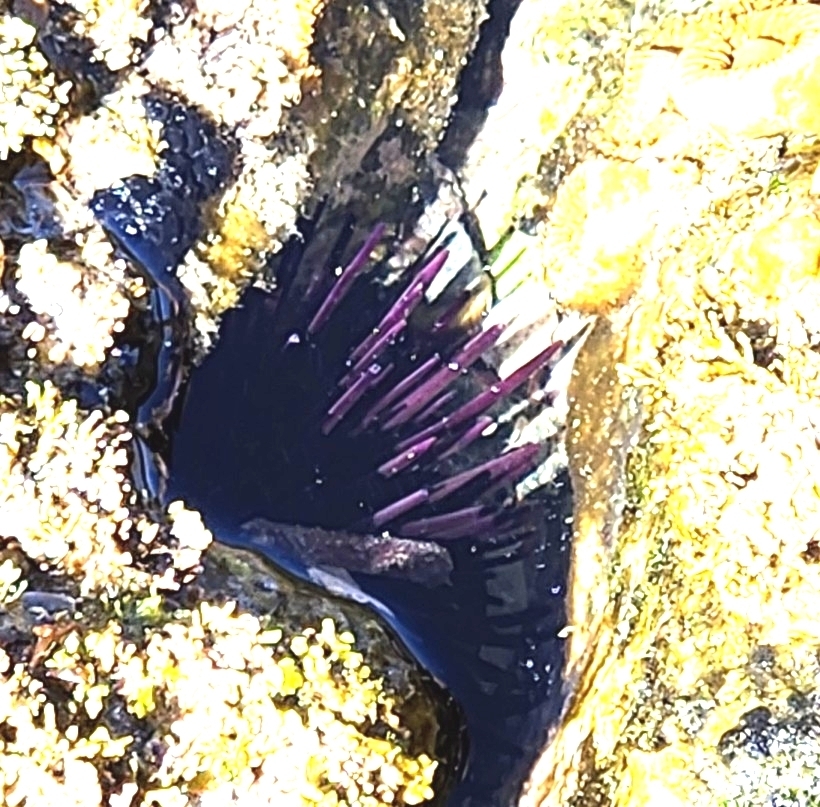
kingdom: Animalia
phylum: Echinodermata
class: Echinoidea
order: Camarodonta
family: Echinometridae
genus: Echinometra
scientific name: Echinometra vanbrunti
